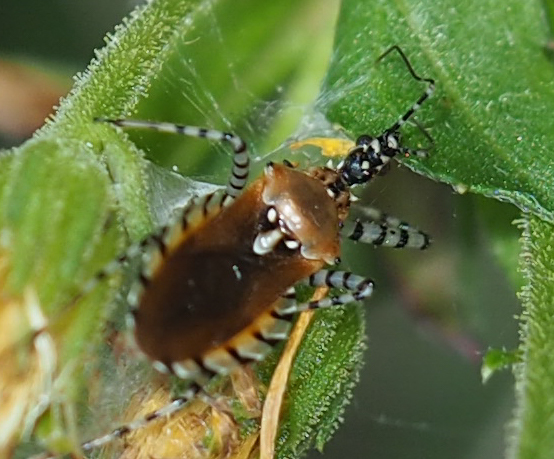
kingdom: Animalia
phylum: Arthropoda
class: Insecta
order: Hemiptera
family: Reduviidae
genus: Pselliopus
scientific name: Pselliopus cinctus
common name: Ringed assassin bug
